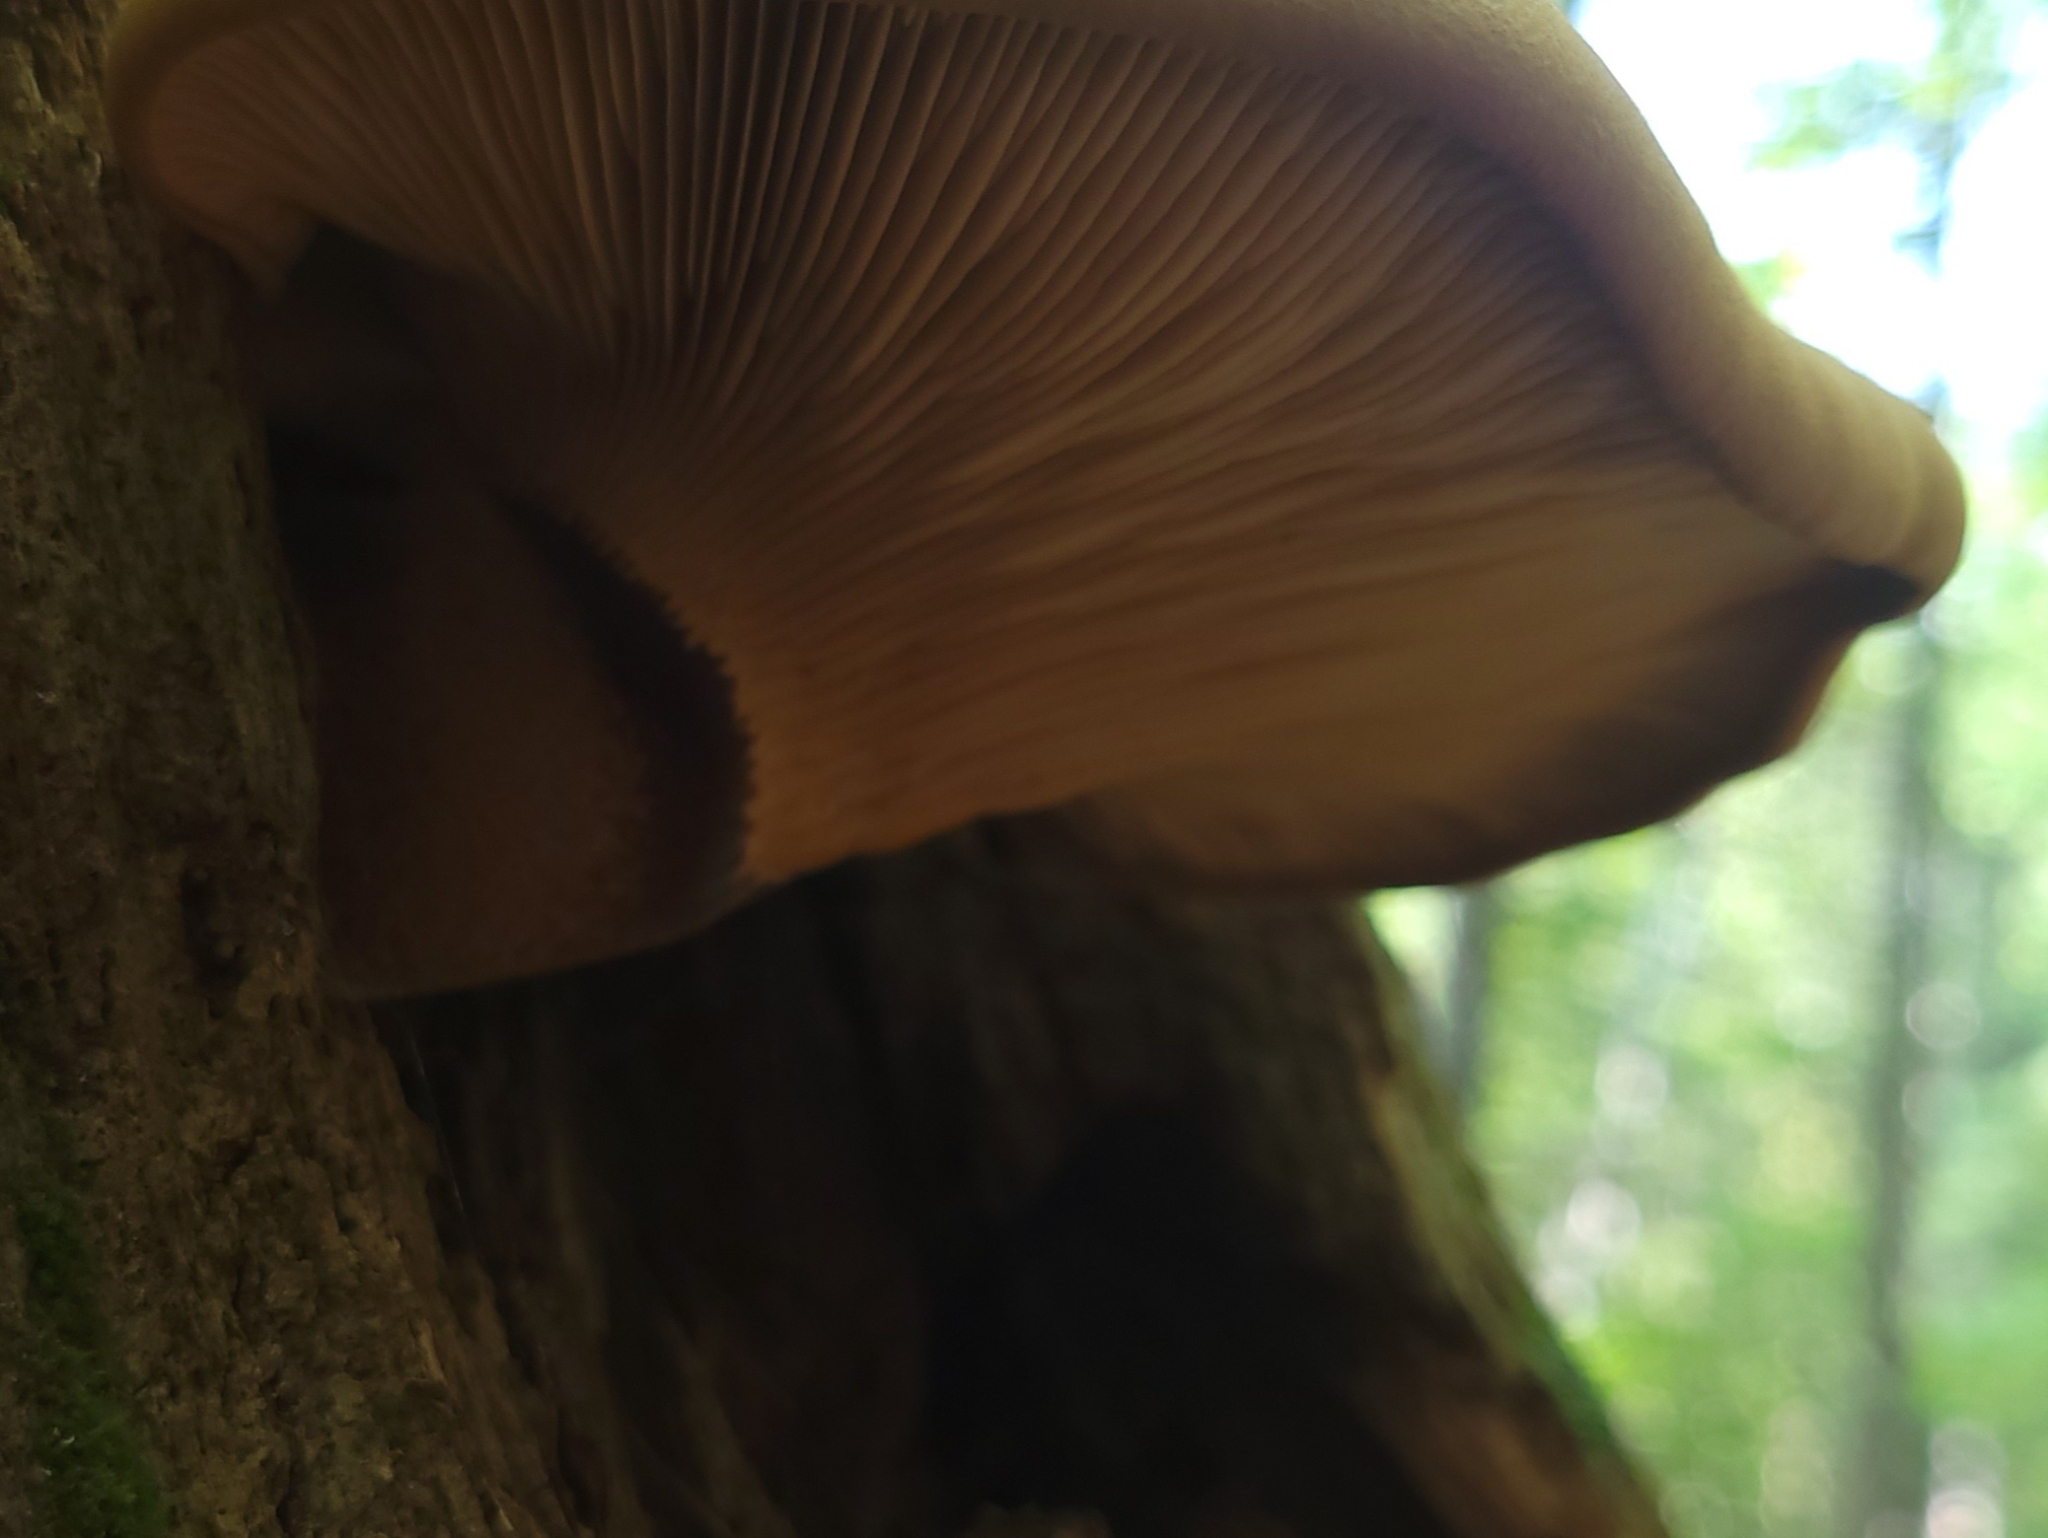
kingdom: Fungi
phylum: Basidiomycota
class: Agaricomycetes
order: Boletales
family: Tapinellaceae
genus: Tapinella
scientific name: Tapinella atrotomentosa
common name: Velvet rollrim
